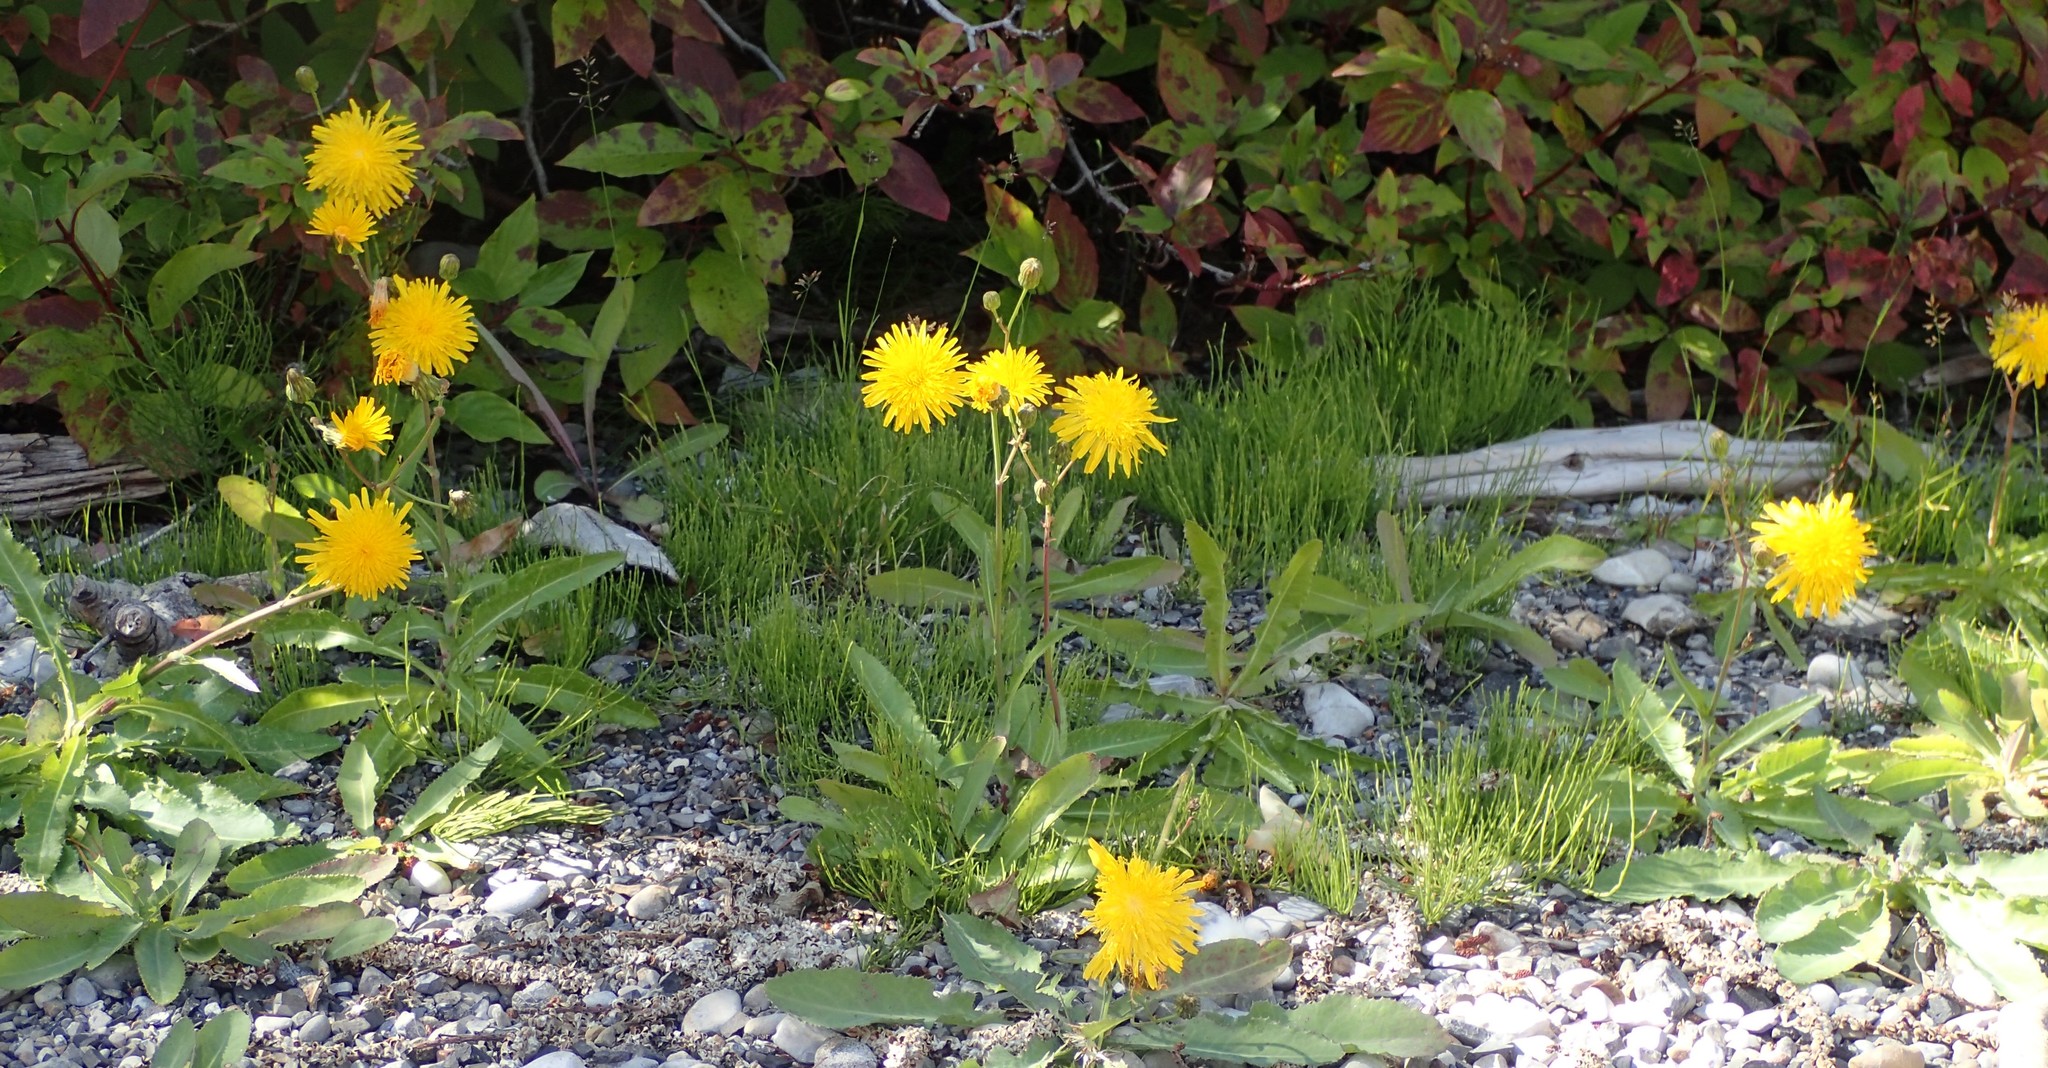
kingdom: Plantae
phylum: Tracheophyta
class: Magnoliopsida
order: Asterales
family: Asteraceae
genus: Sonchus
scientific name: Sonchus arvensis
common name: Perennial sow-thistle
